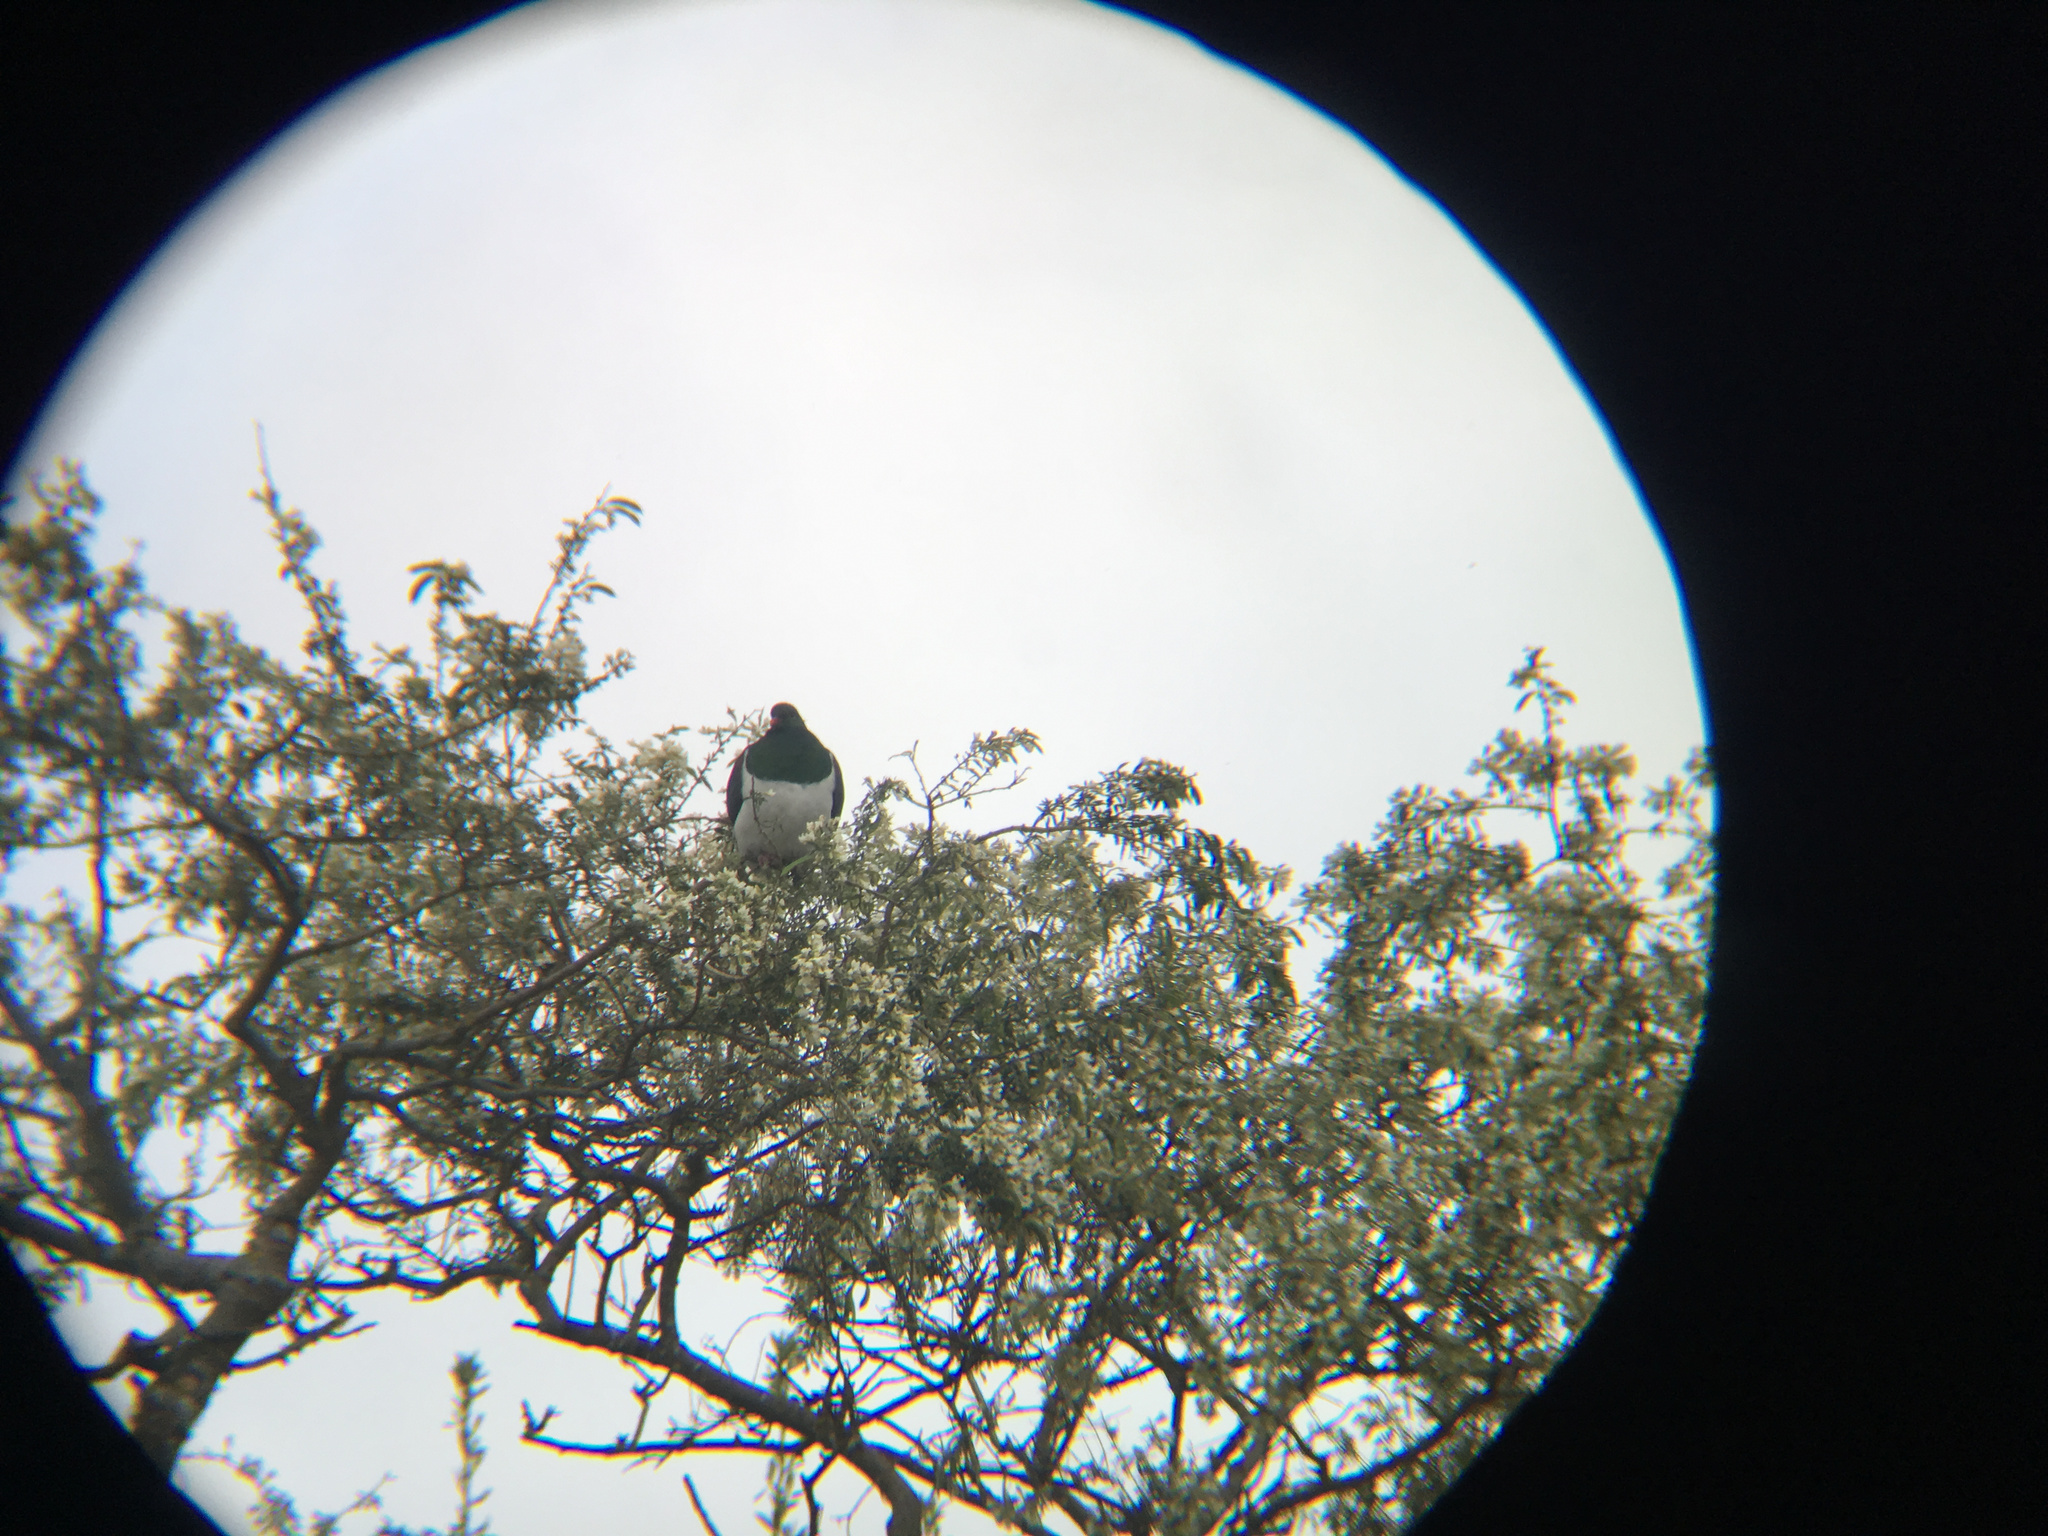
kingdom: Animalia
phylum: Chordata
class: Aves
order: Columbiformes
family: Columbidae
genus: Hemiphaga
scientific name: Hemiphaga novaeseelandiae
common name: New zealand pigeon
